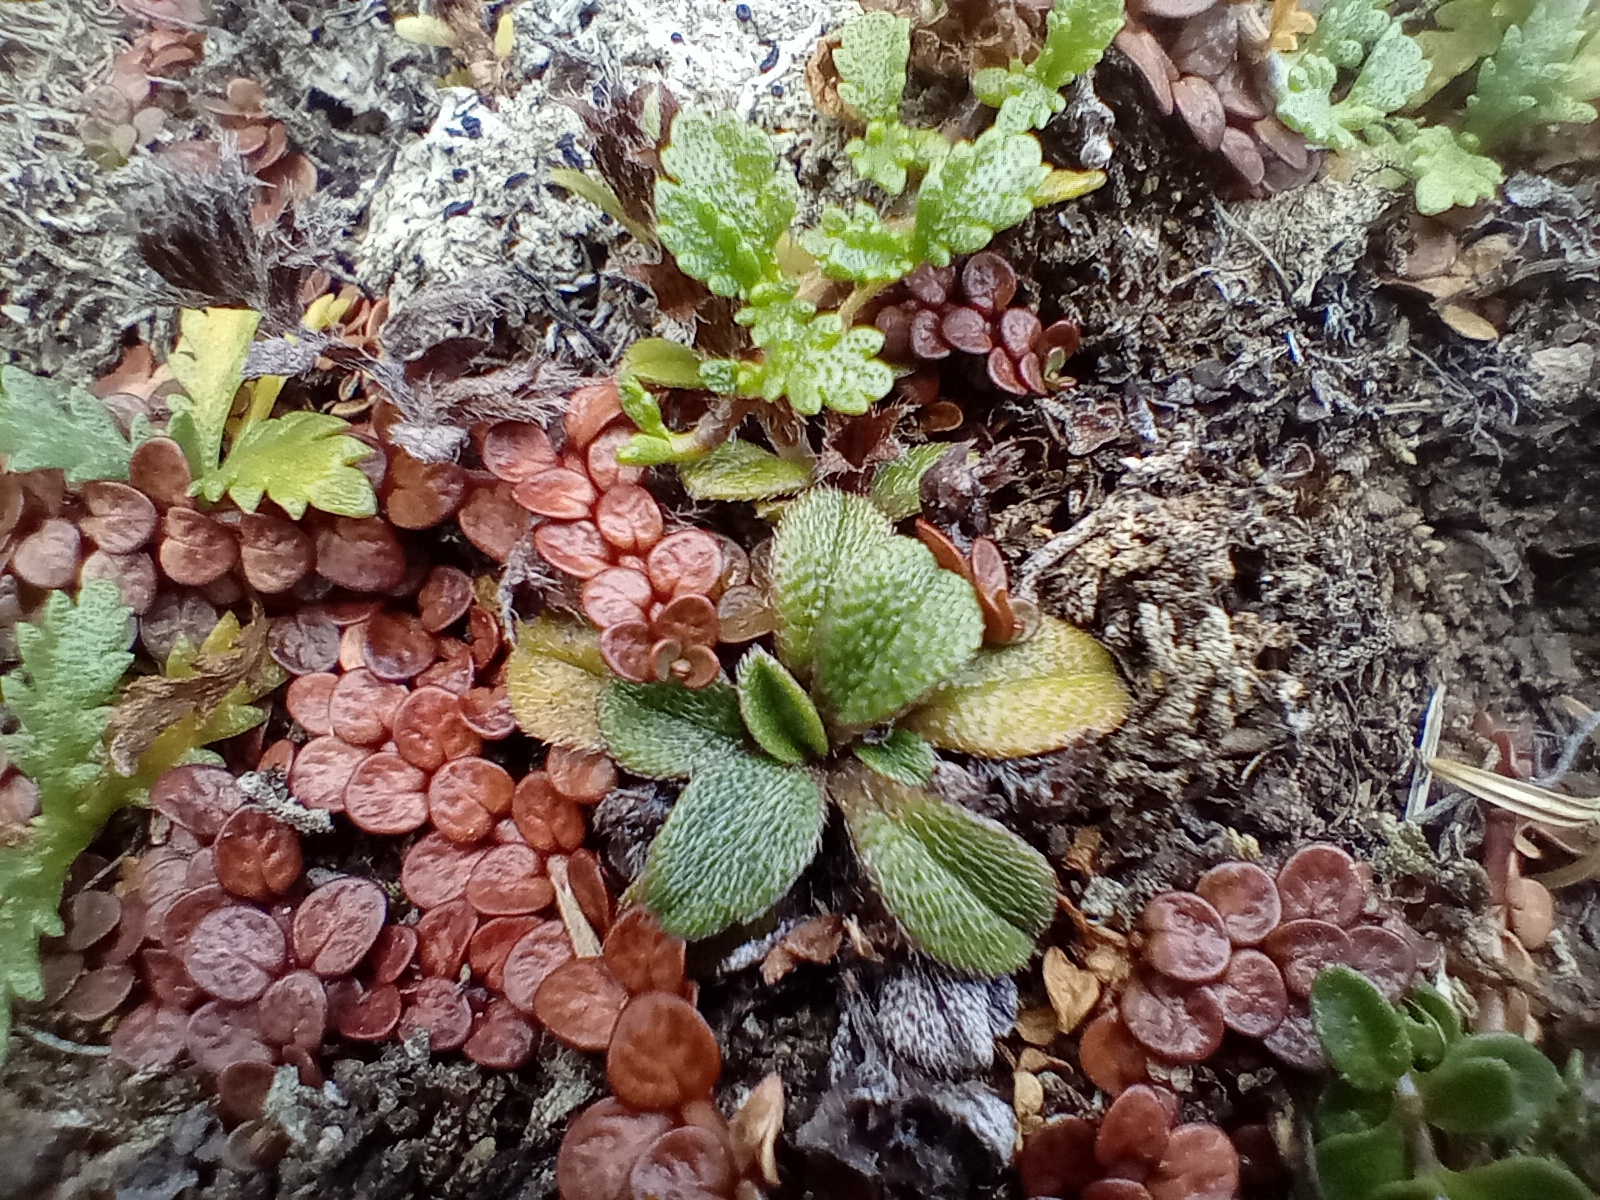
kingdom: Plantae
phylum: Tracheophyta
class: Magnoliopsida
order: Boraginales
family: Boraginaceae
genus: Myosotis
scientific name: Myosotis antarctica
